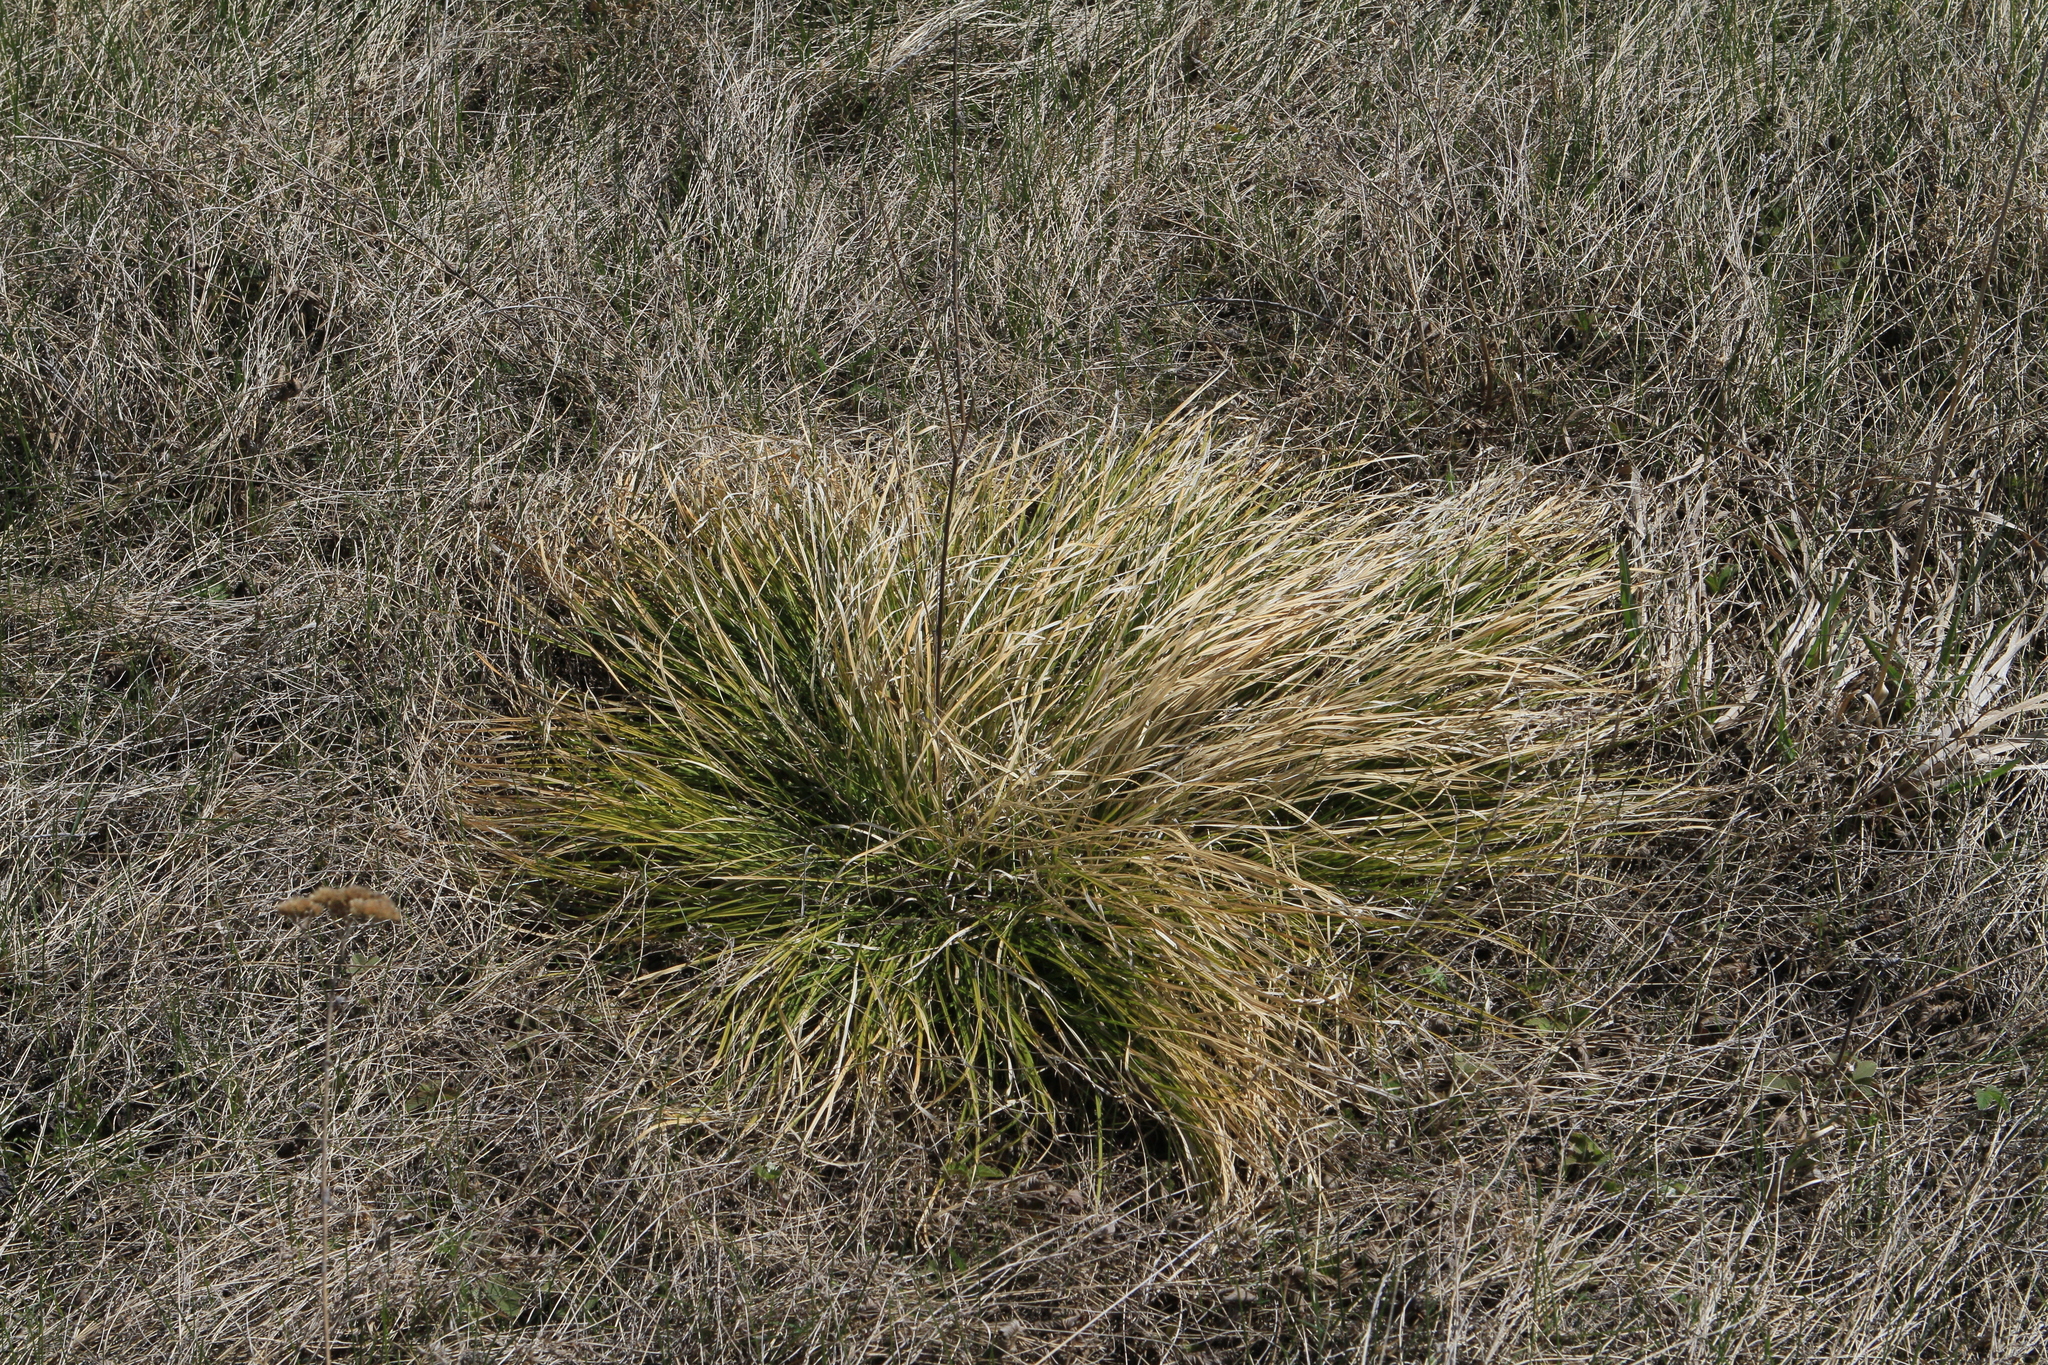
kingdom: Plantae
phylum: Tracheophyta
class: Liliopsida
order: Poales
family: Cyperaceae
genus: Carex
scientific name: Carex pediformis
